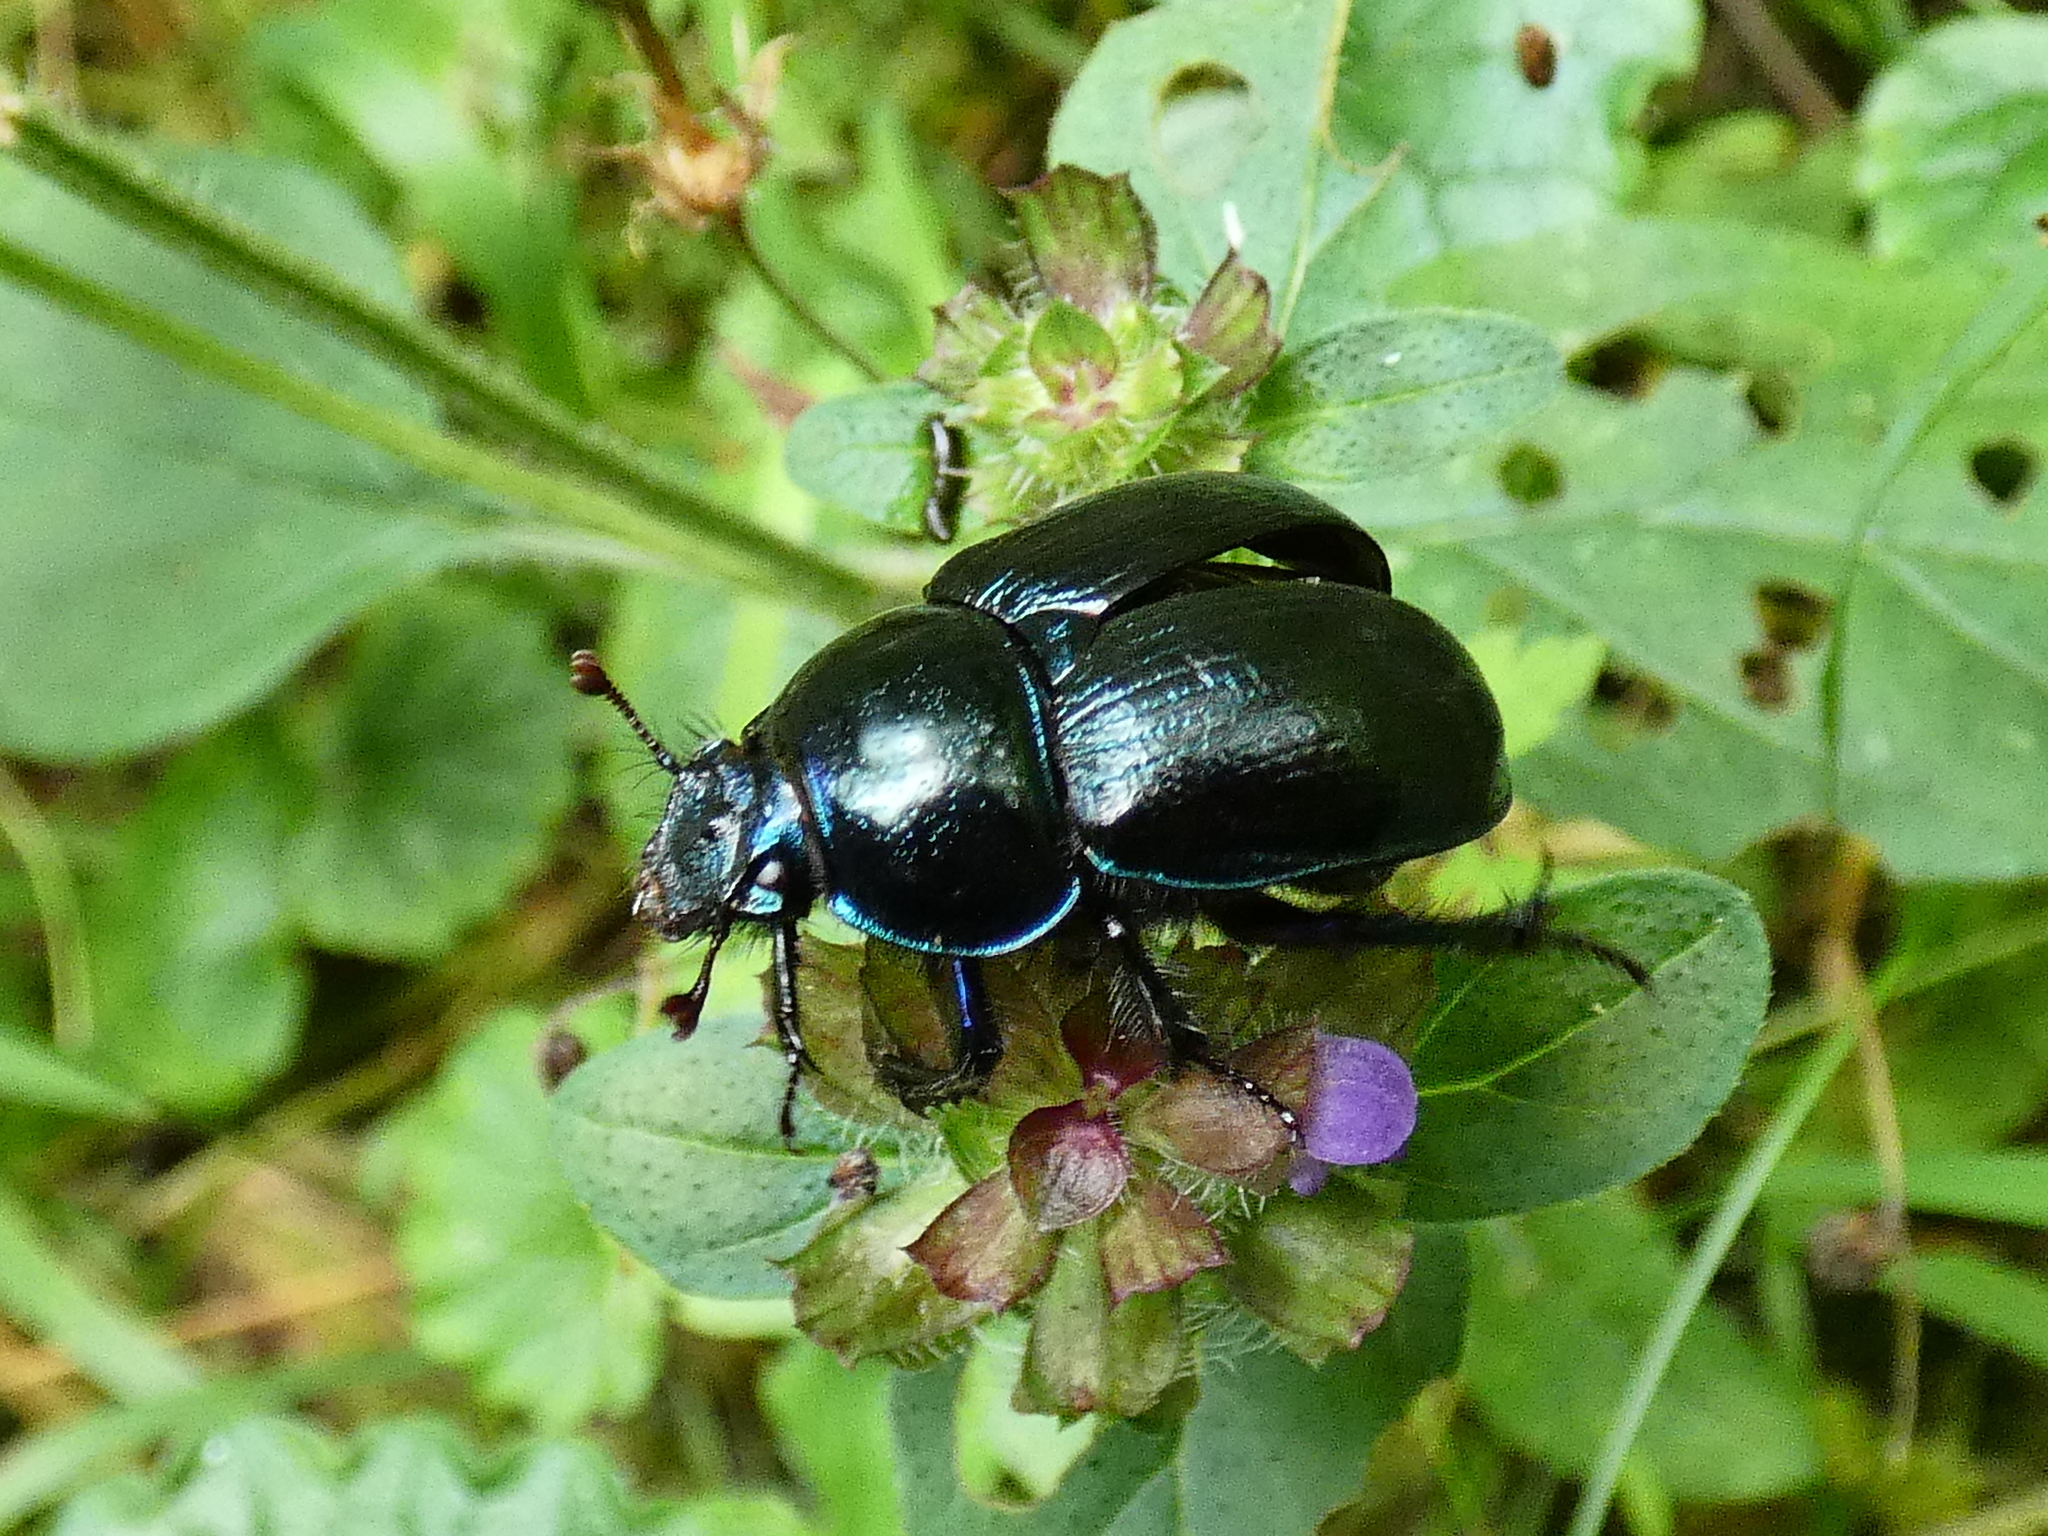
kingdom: Animalia
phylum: Arthropoda
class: Insecta
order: Coleoptera
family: Geotrupidae
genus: Anoplotrupes
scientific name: Anoplotrupes stercorosus
